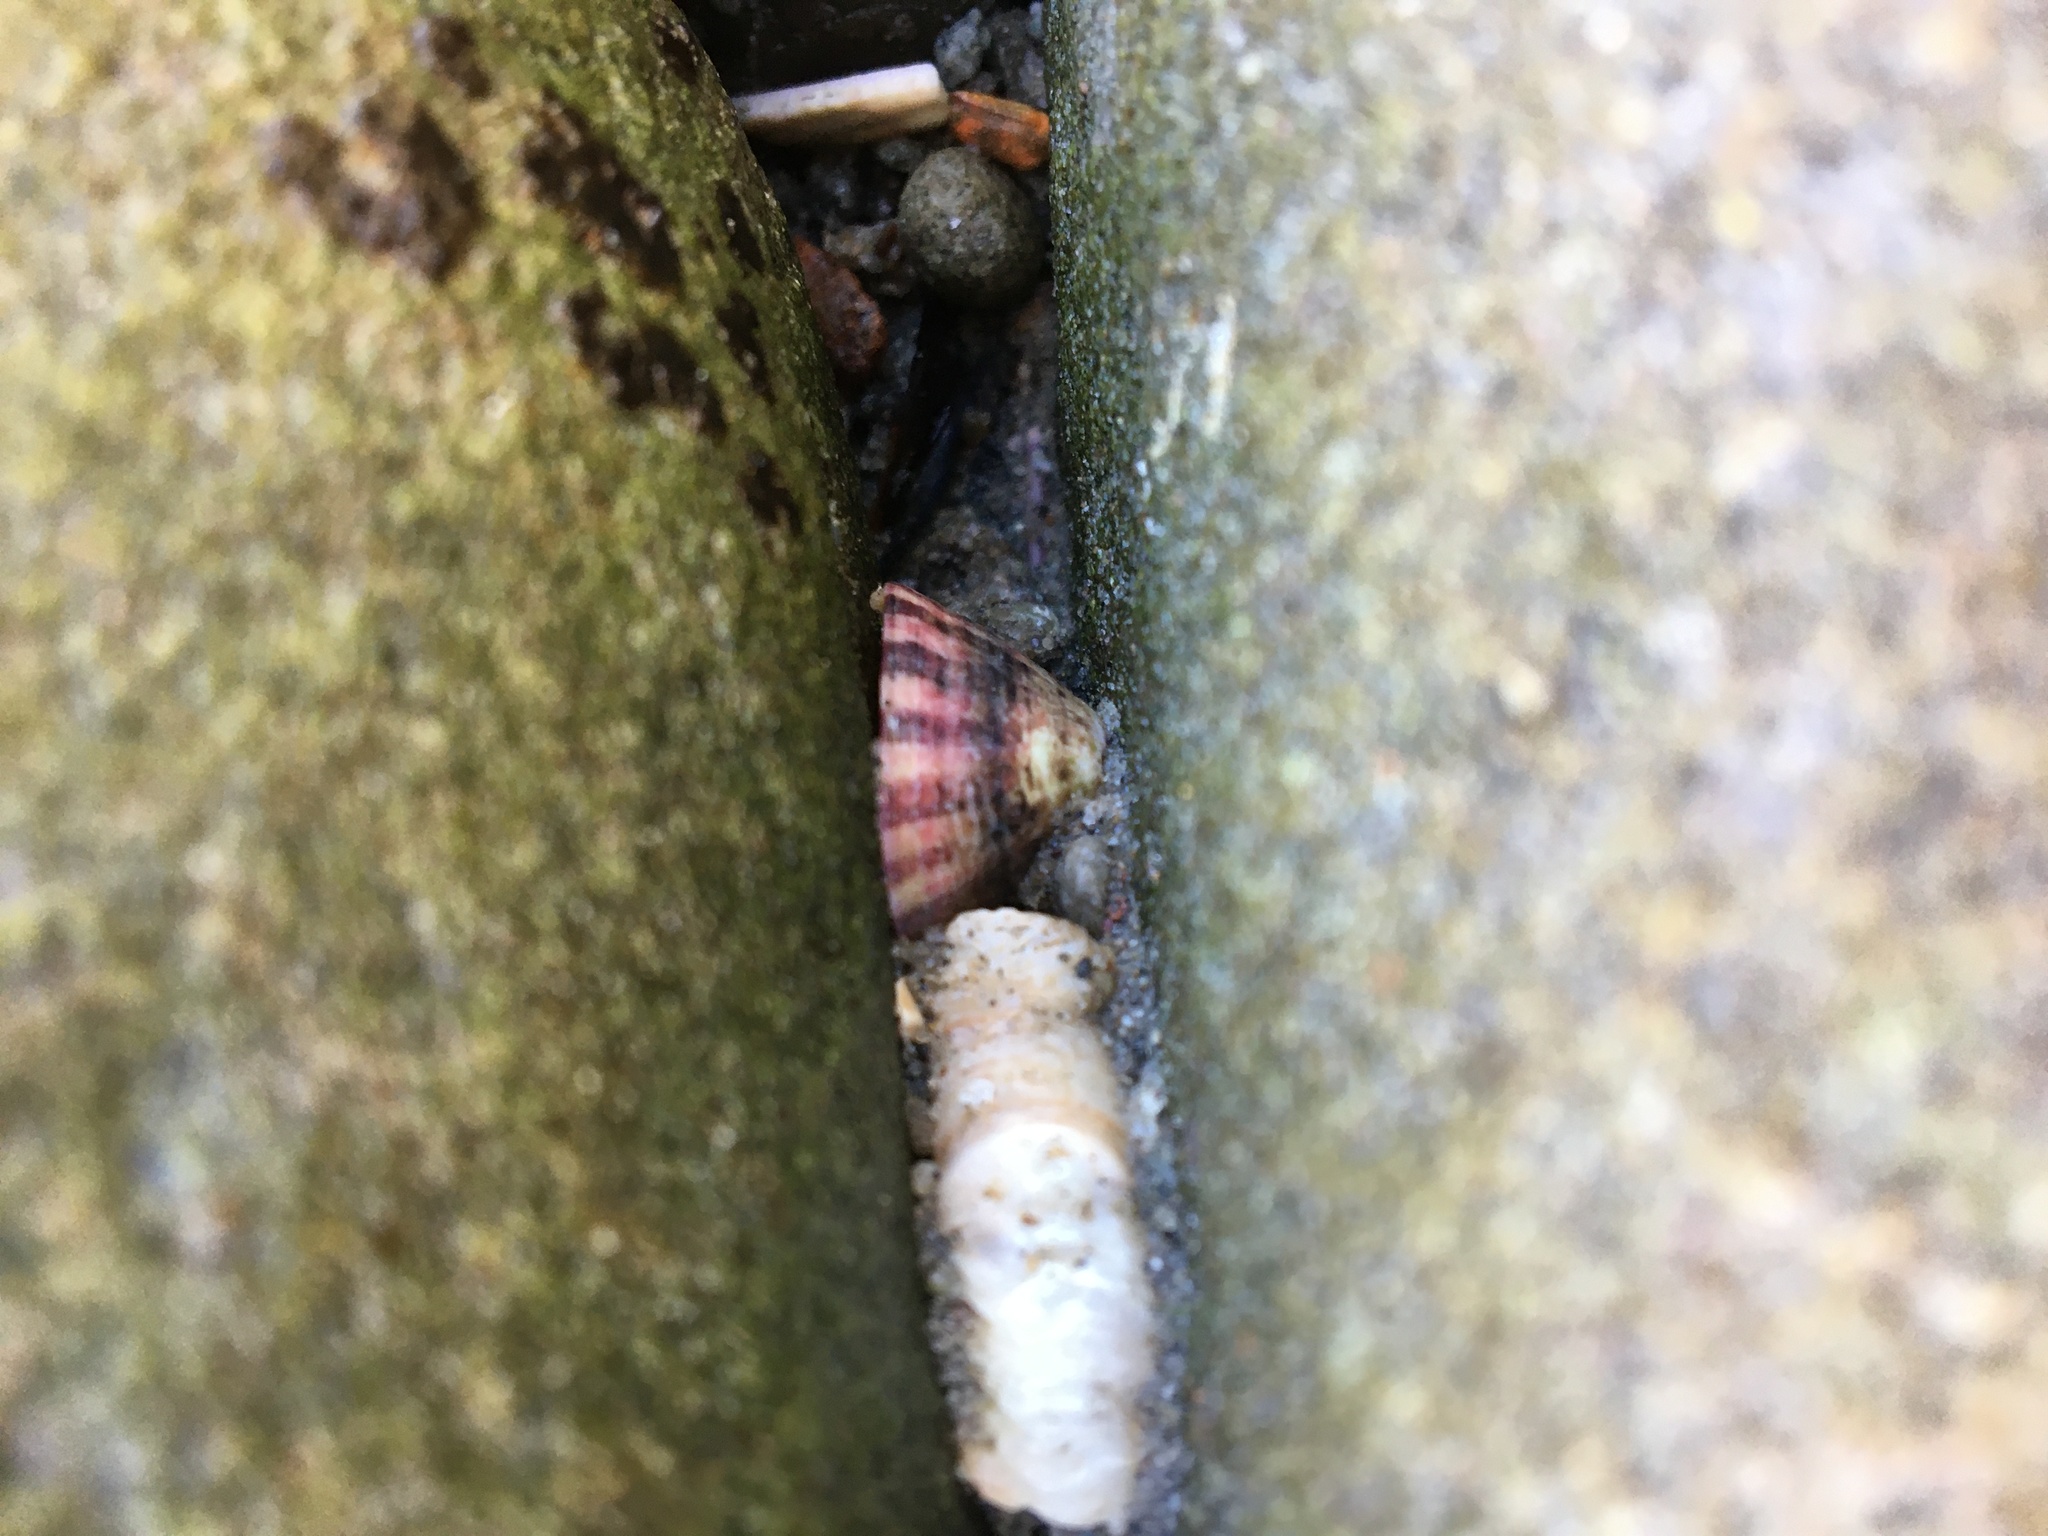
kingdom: Animalia
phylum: Mollusca
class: Gastropoda
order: Lepetellida
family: Fissurellidae
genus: Fissurella
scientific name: Fissurella volcano
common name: Volcano keyhole limpet
